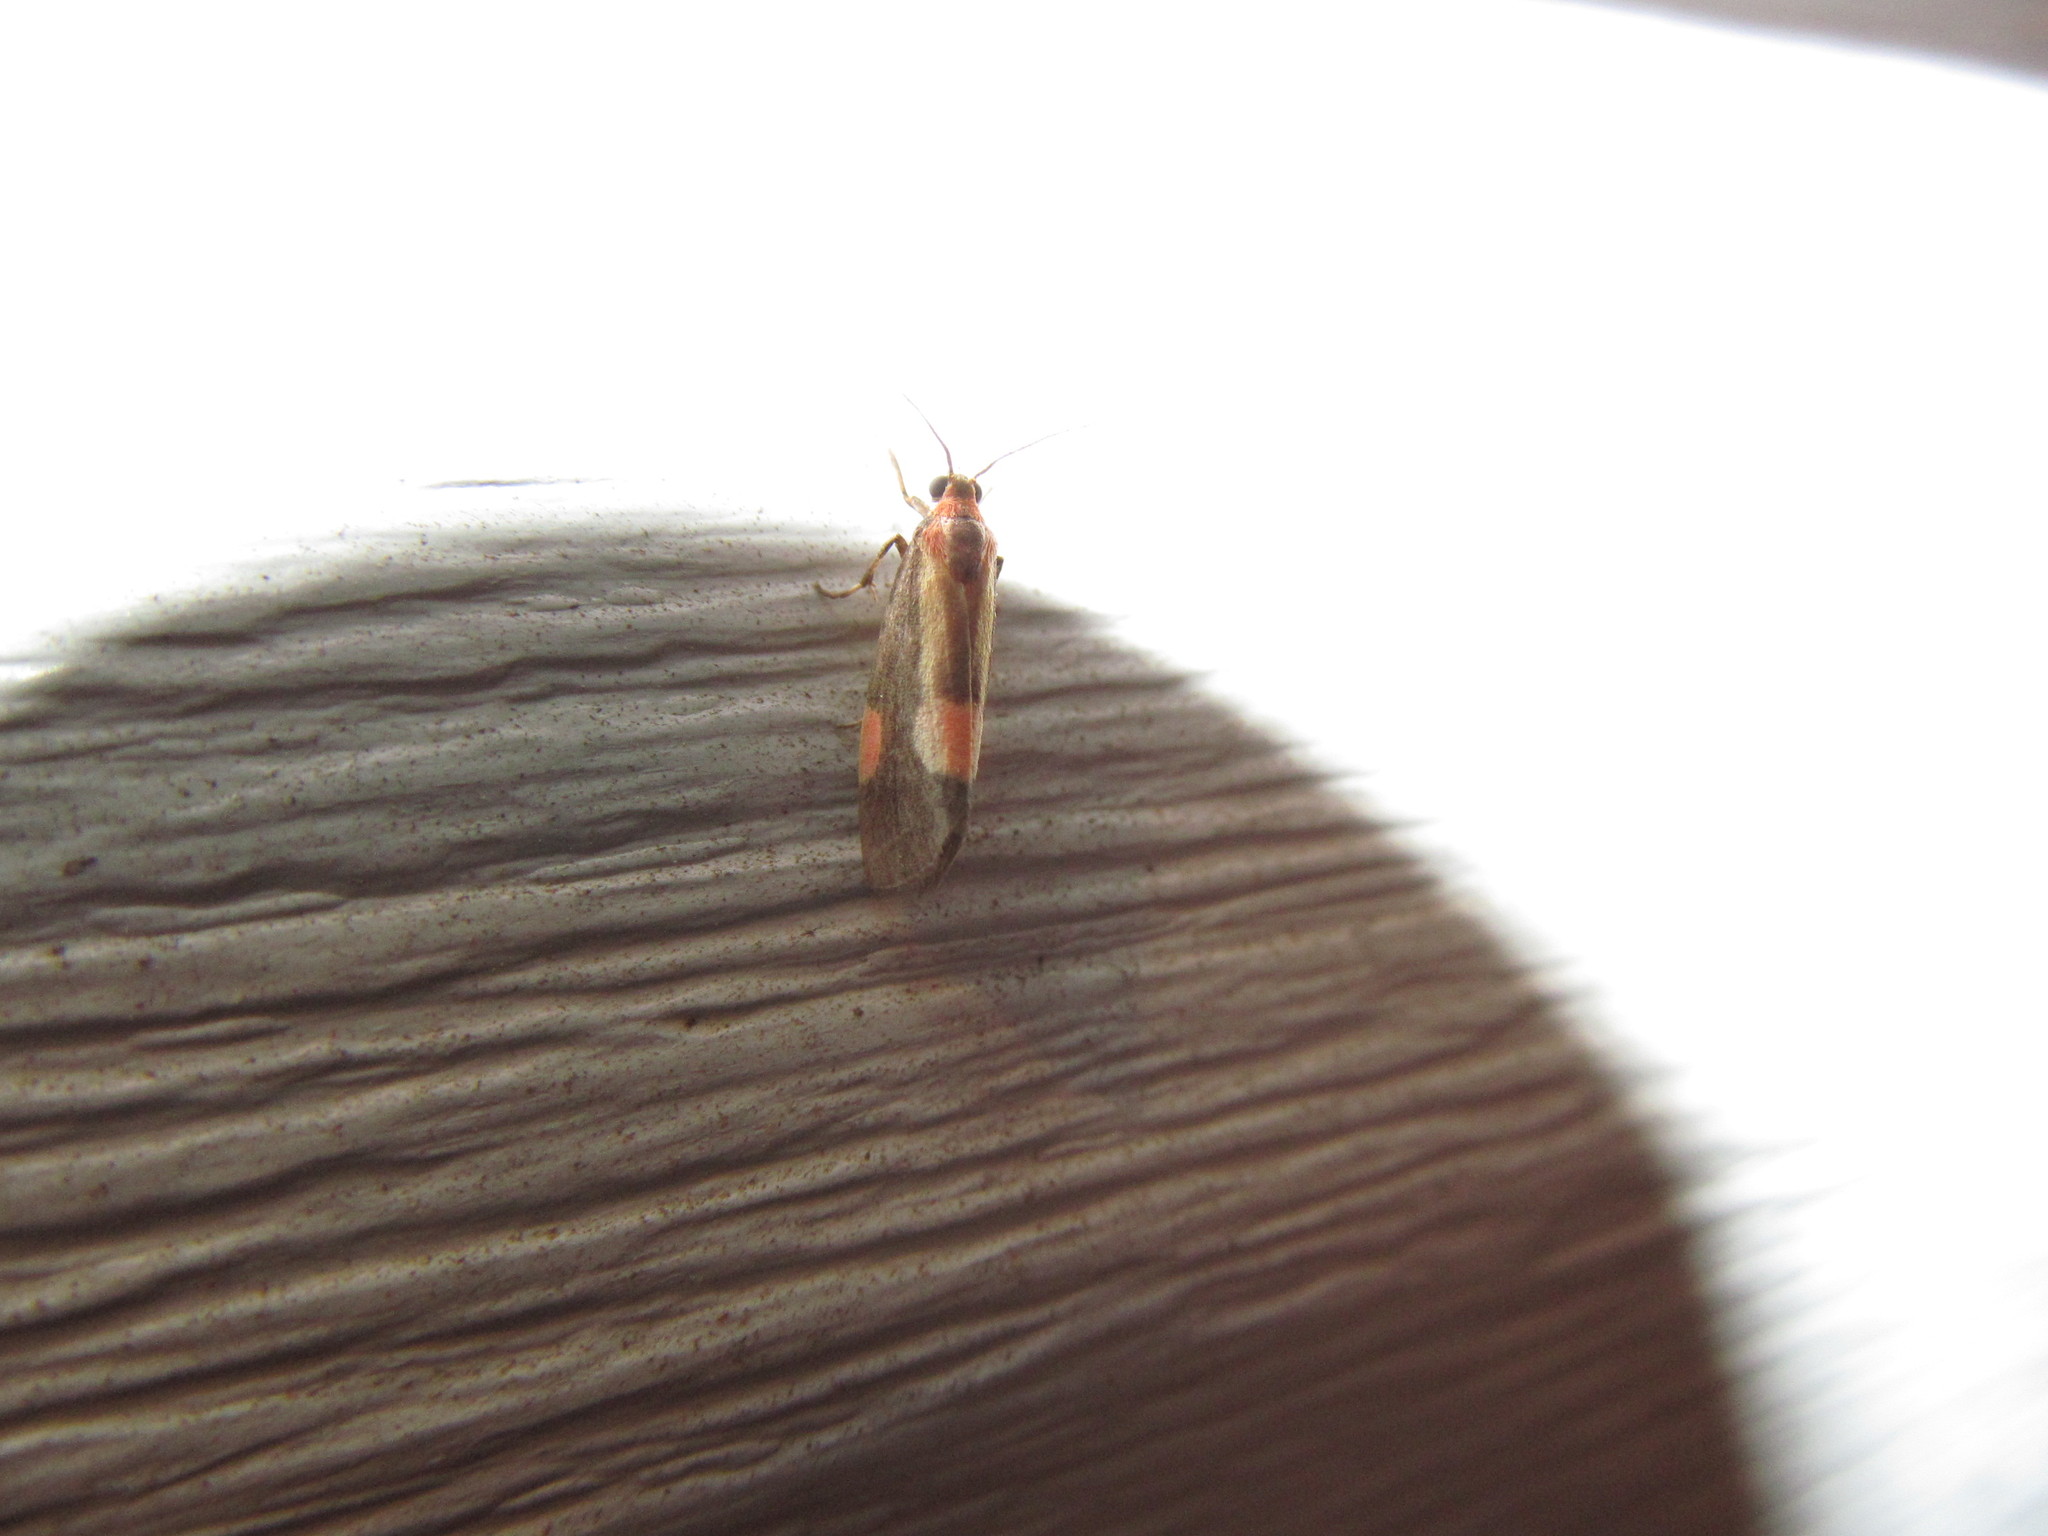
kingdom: Animalia
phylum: Arthropoda
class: Insecta
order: Lepidoptera
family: Erebidae
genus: Cisthene
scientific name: Cisthene packardii
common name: Packard's lichen moth
